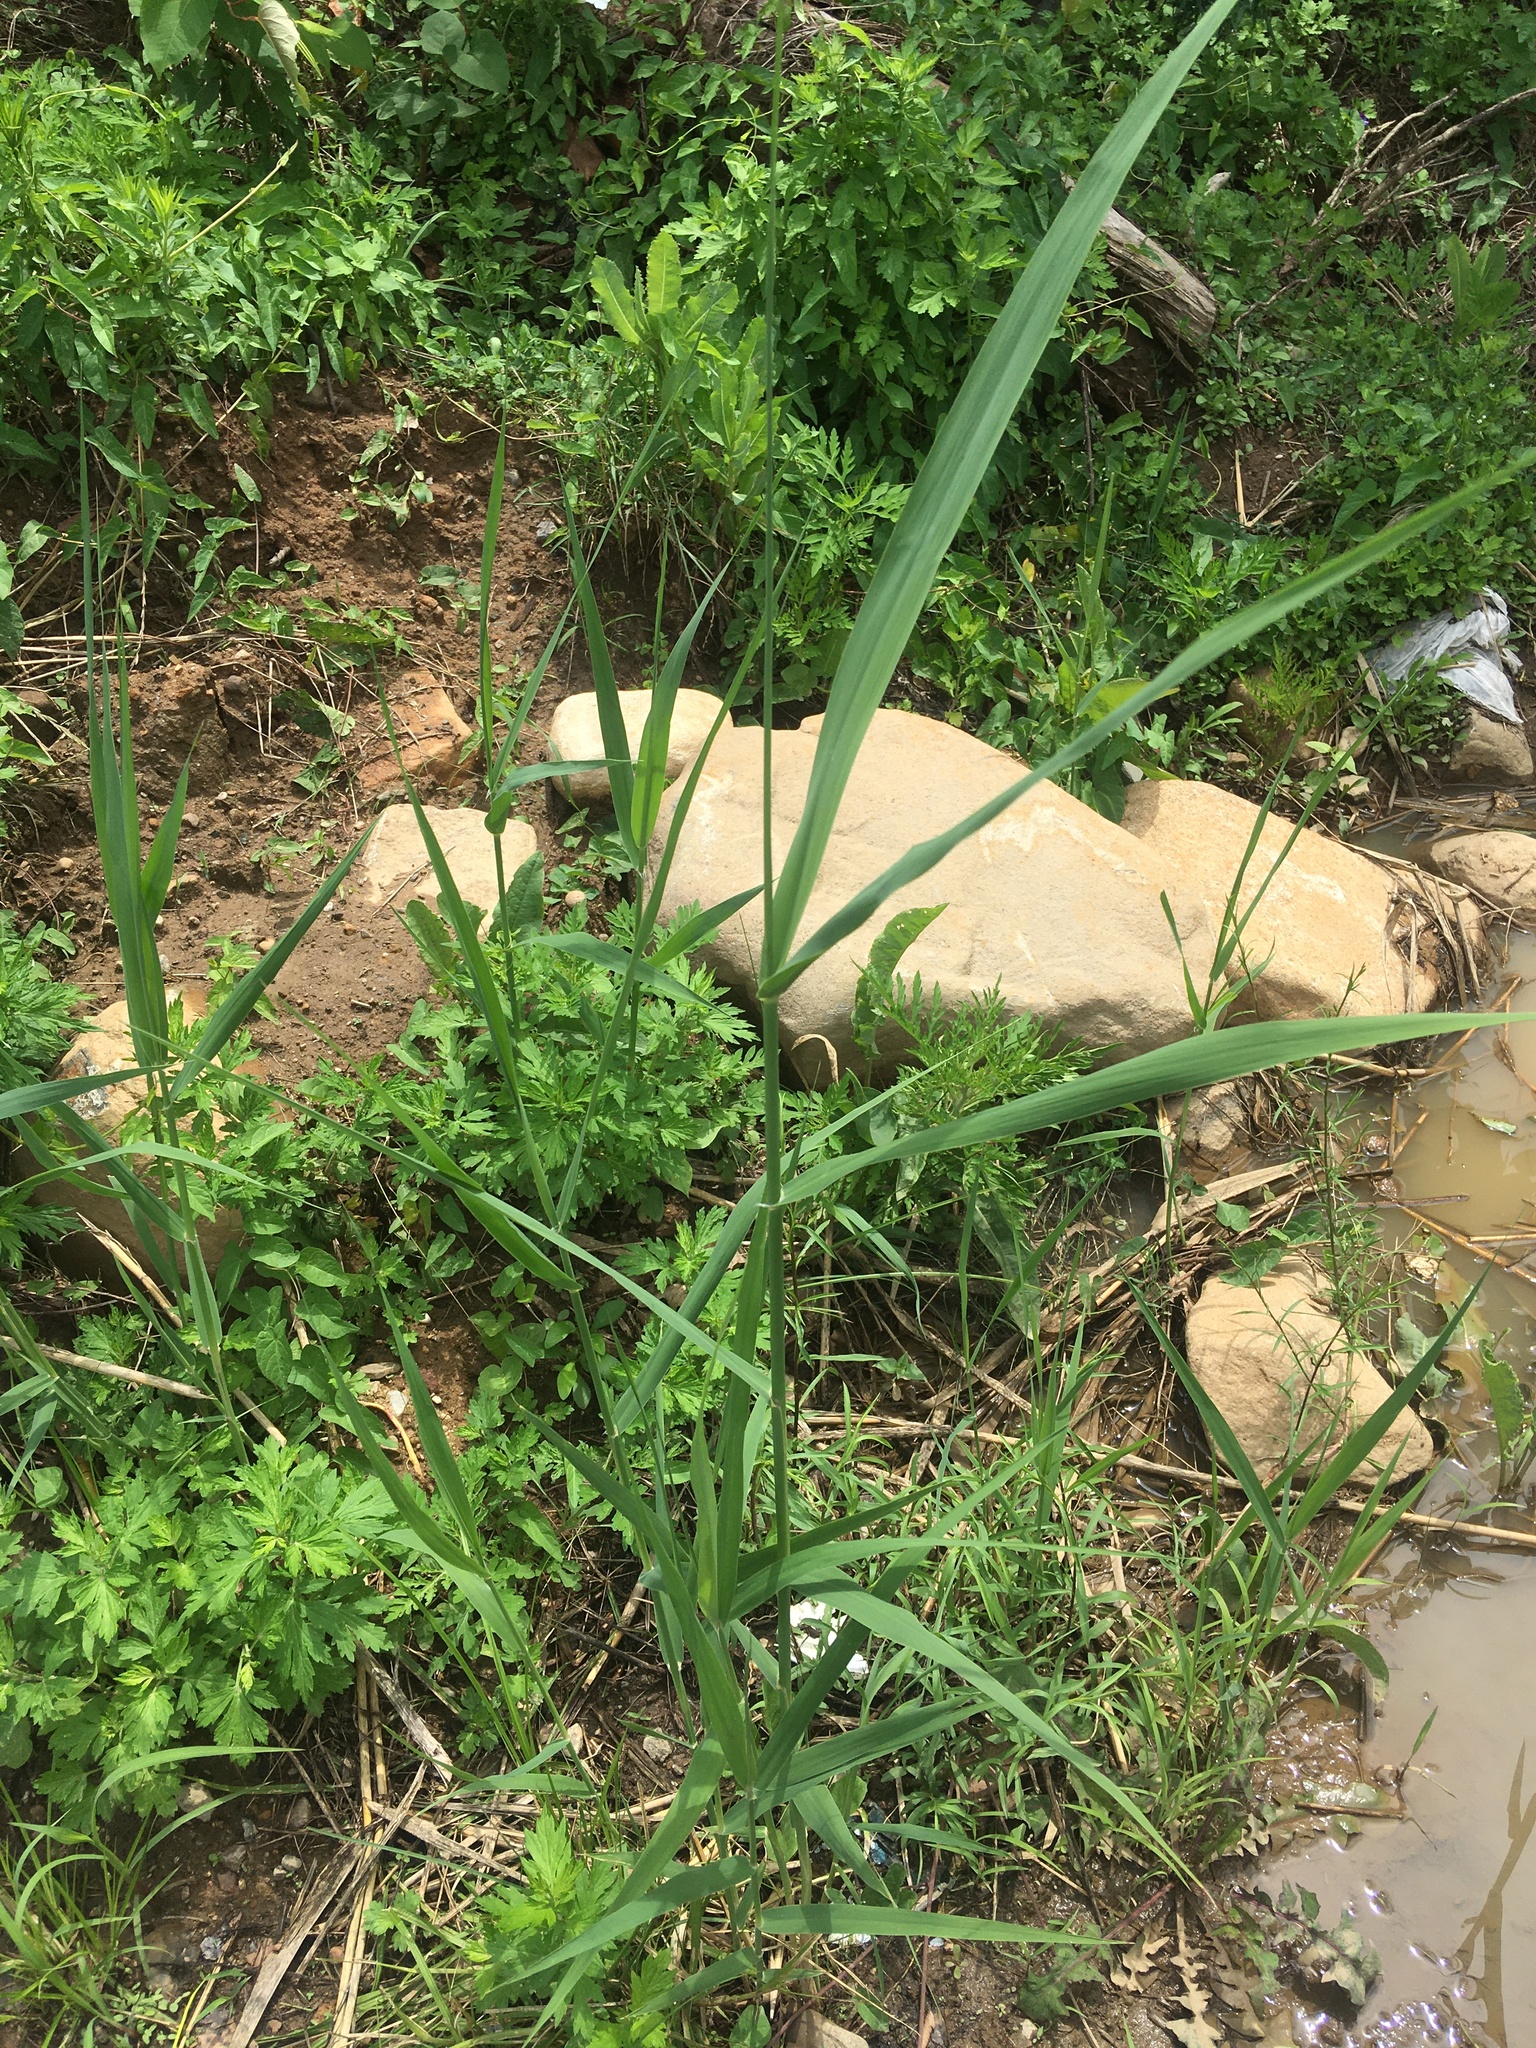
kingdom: Plantae
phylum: Tracheophyta
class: Liliopsida
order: Poales
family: Poaceae
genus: Phragmites
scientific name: Phragmites australis
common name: Common reed
